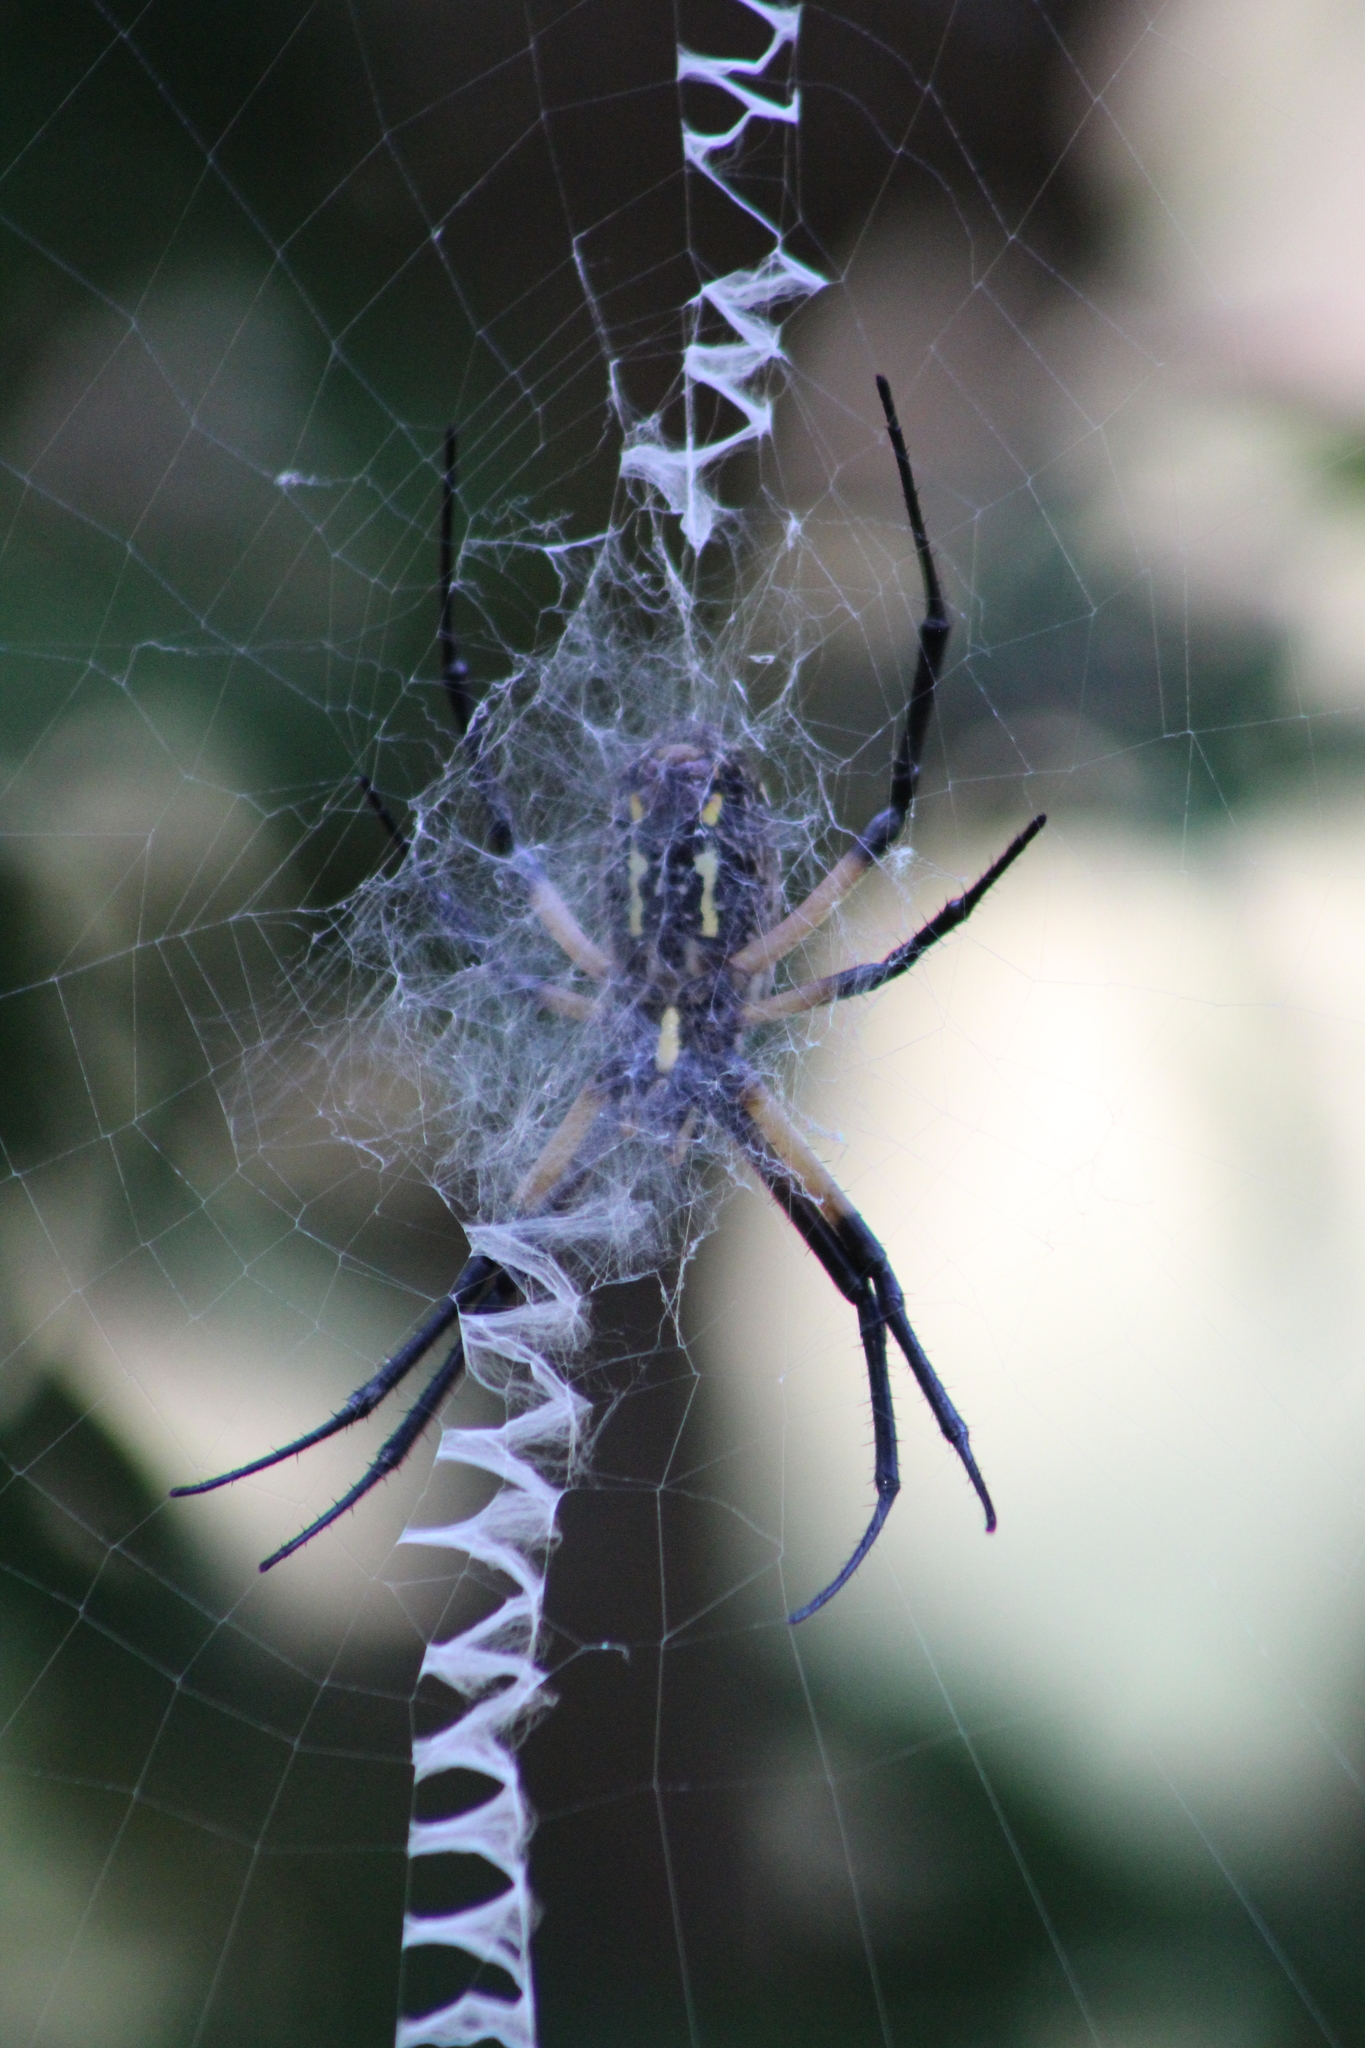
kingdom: Animalia
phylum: Arthropoda
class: Arachnida
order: Araneae
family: Araneidae
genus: Argiope
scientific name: Argiope aurantia
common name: Orb weavers
